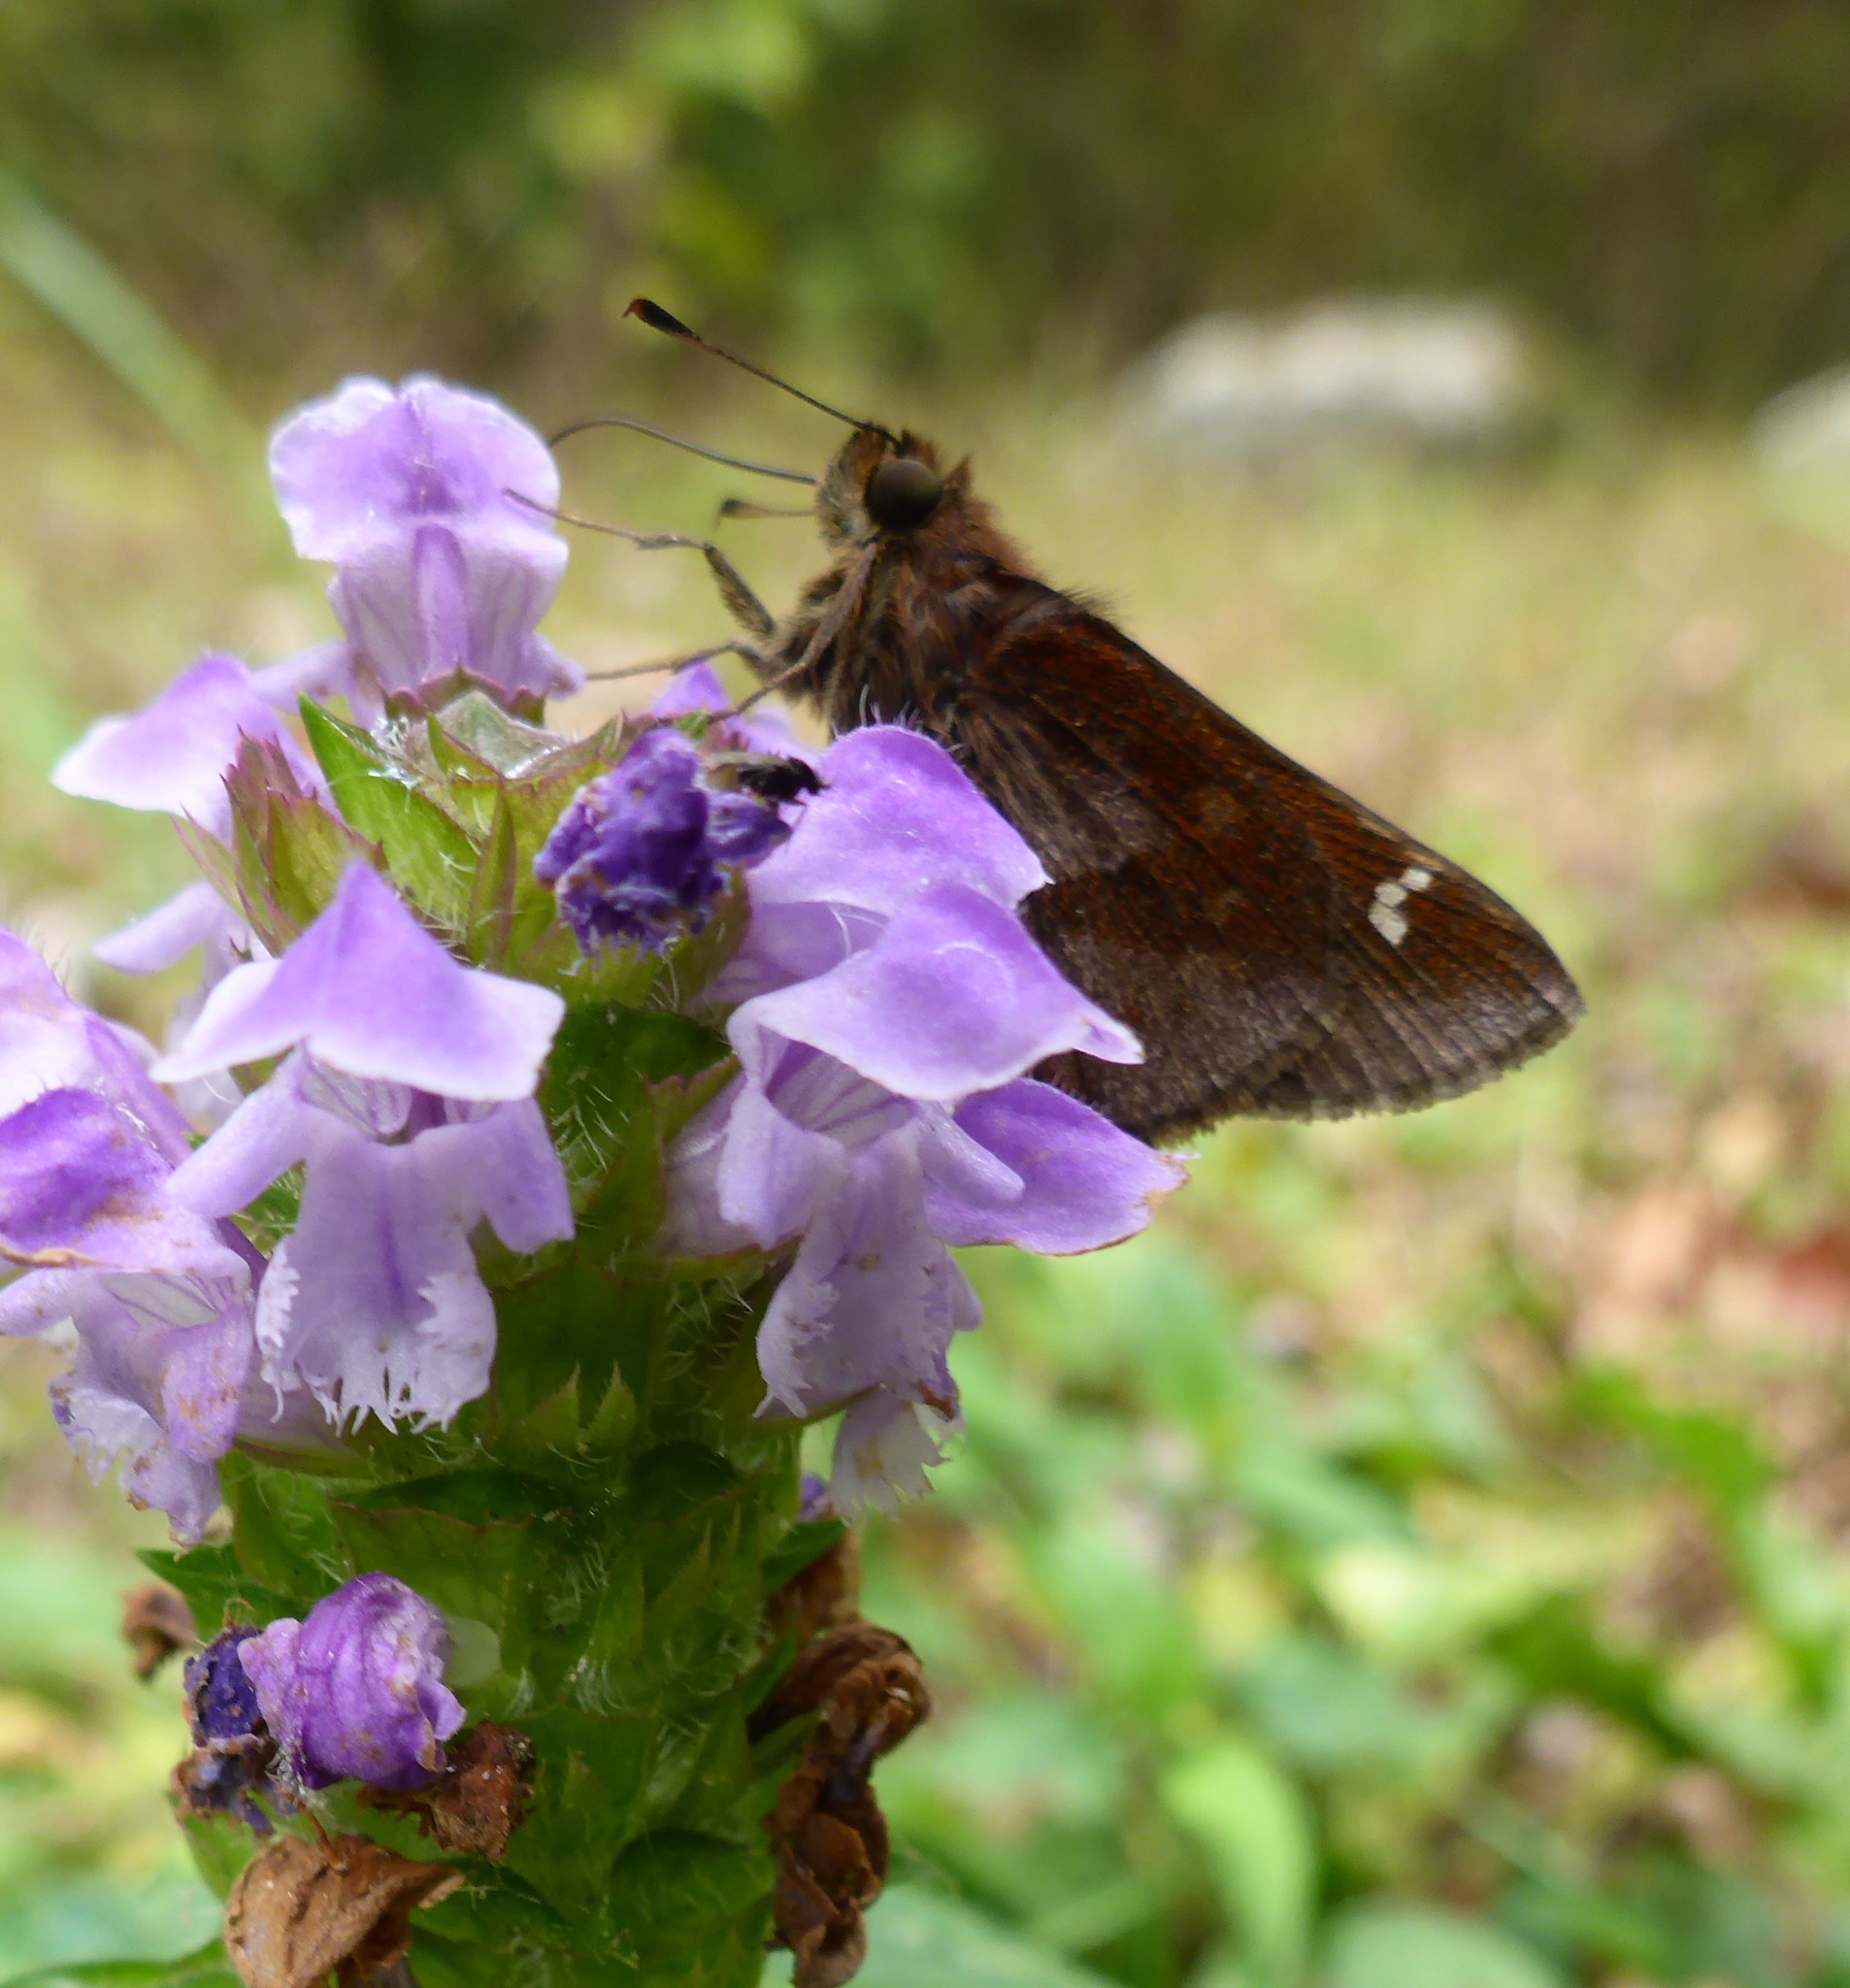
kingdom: Animalia
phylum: Arthropoda
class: Insecta
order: Lepidoptera
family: Hesperiidae
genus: Lerema
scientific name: Lerema accius
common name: Clouded skipper
